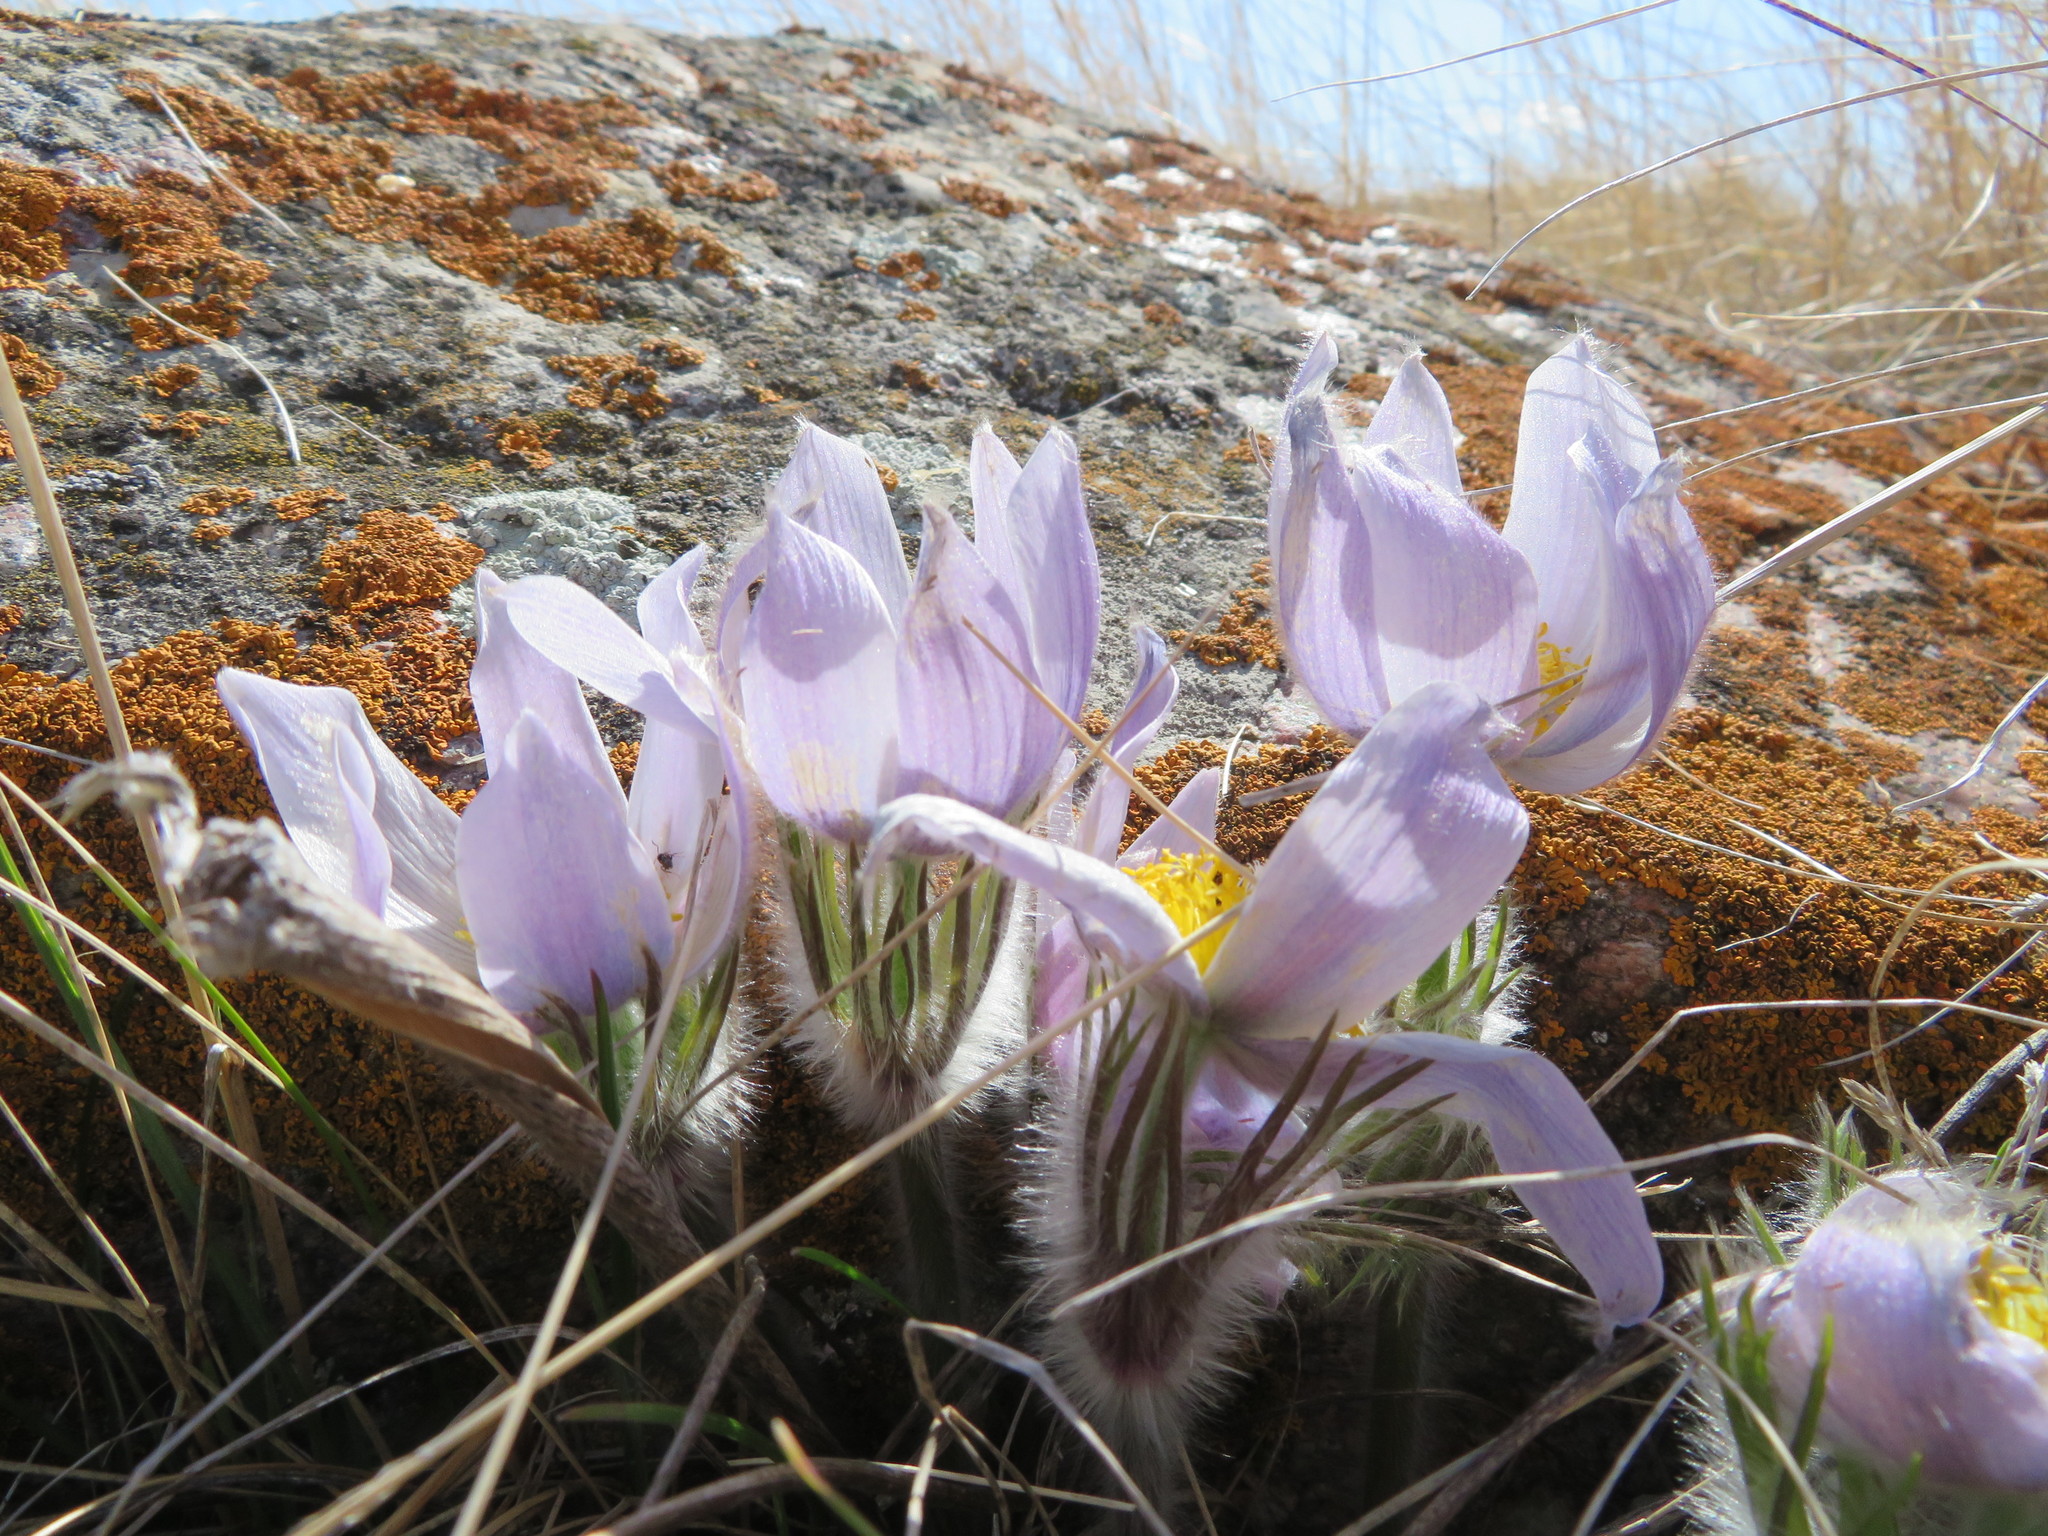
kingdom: Plantae
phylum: Tracheophyta
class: Magnoliopsida
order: Ranunculales
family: Ranunculaceae
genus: Pulsatilla
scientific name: Pulsatilla nuttalliana
